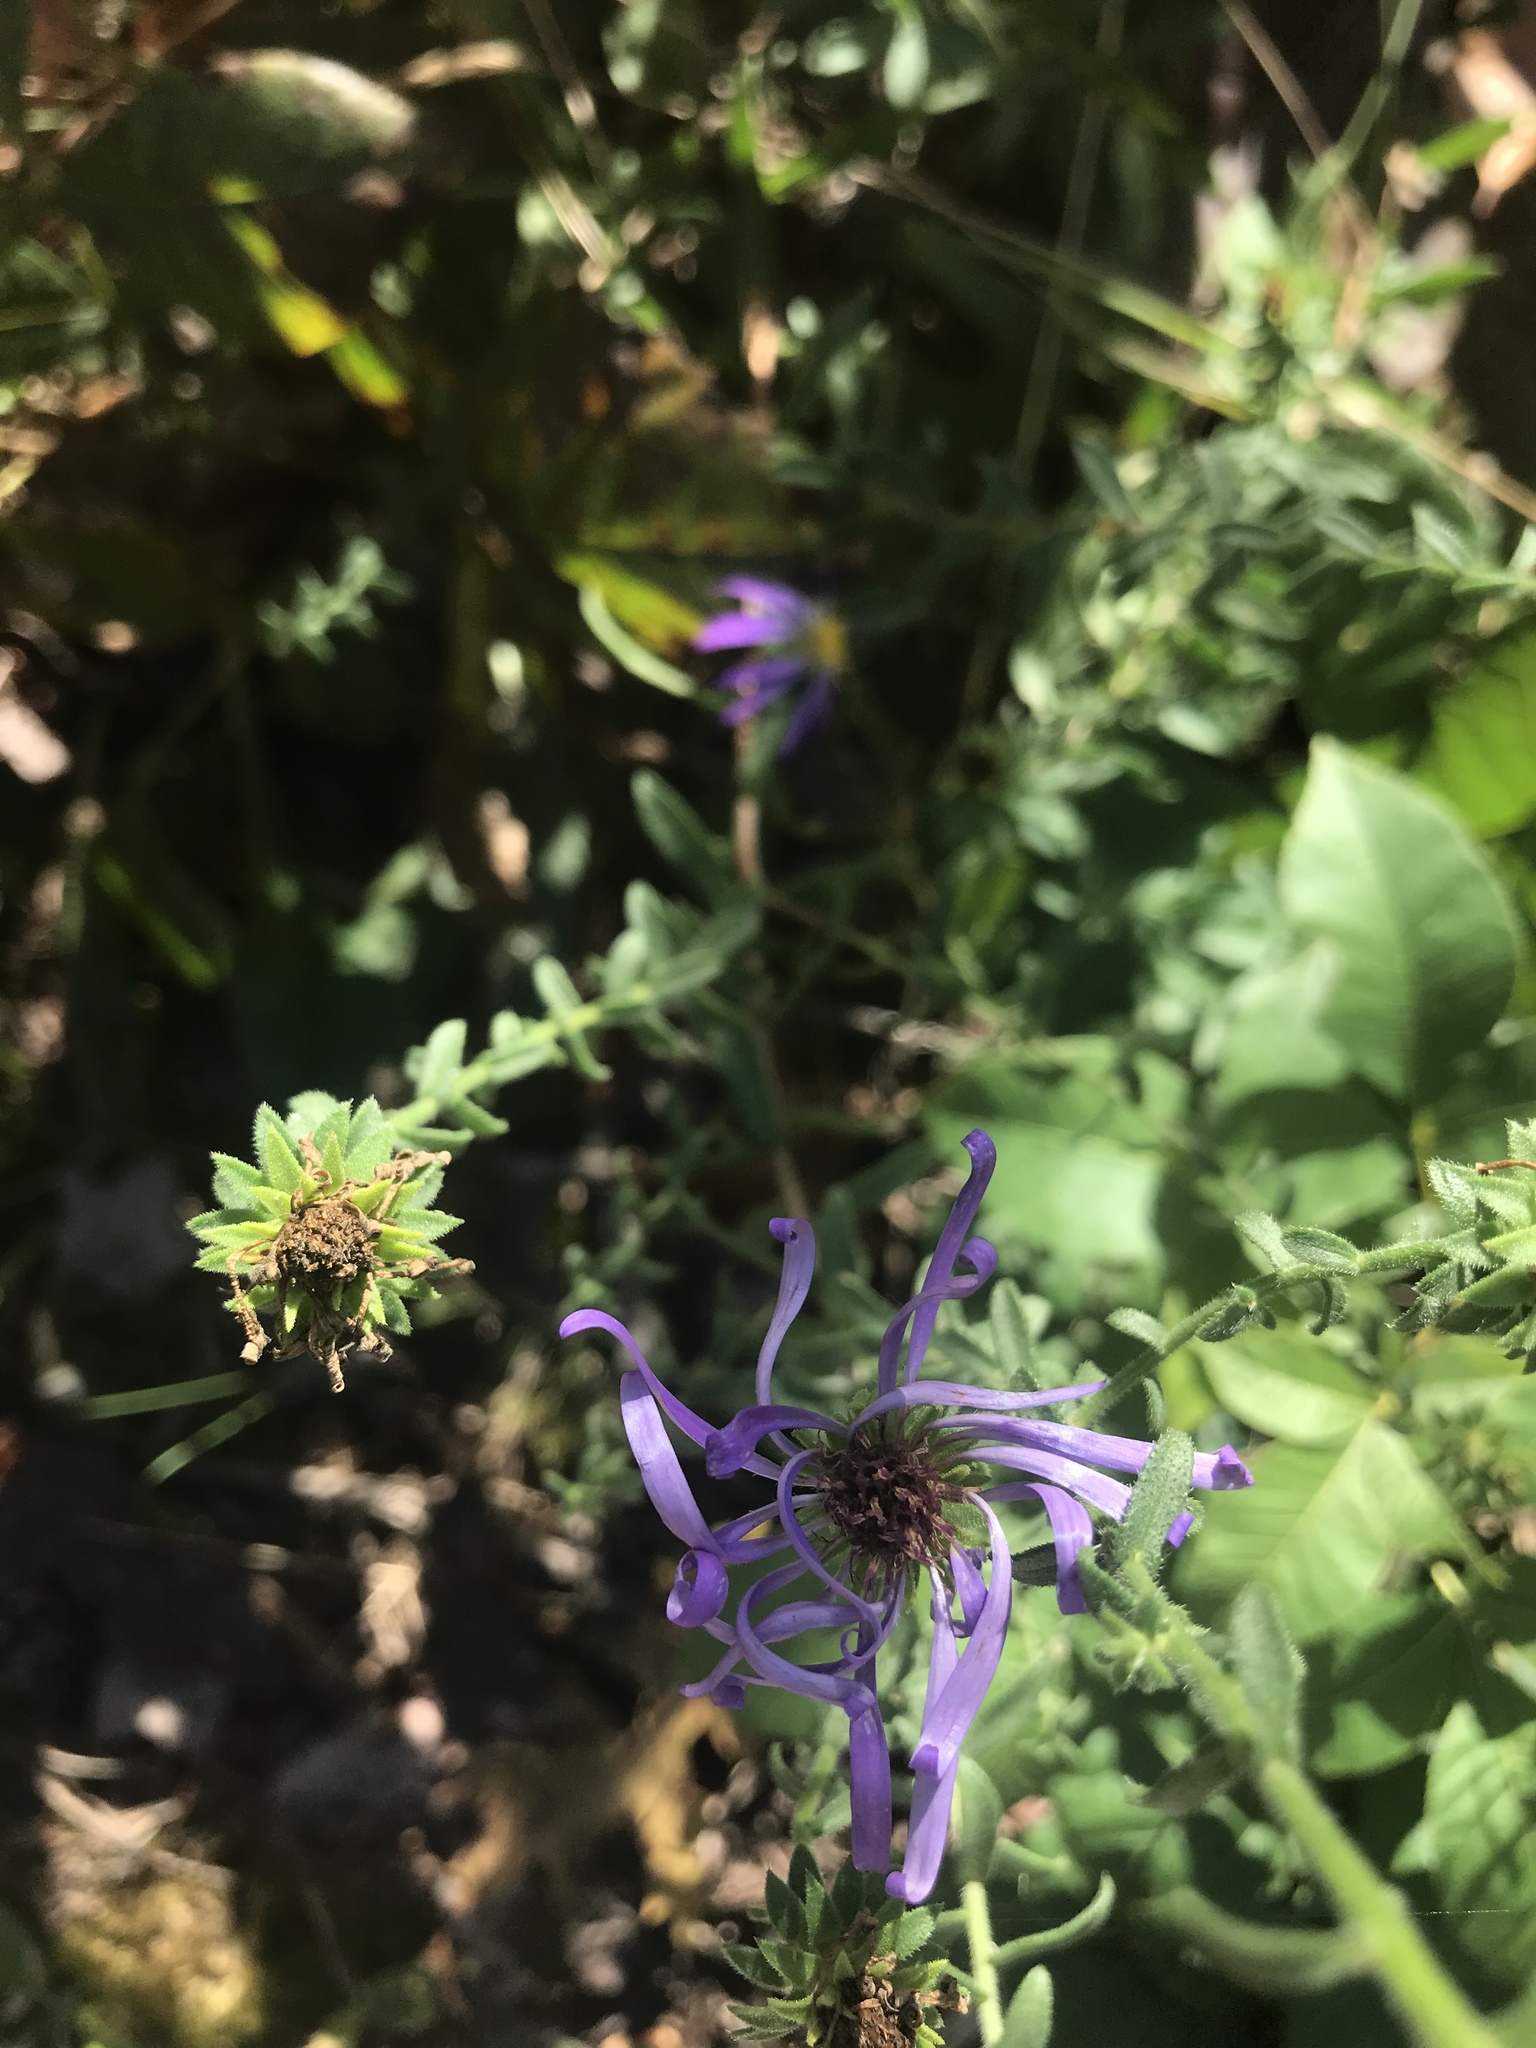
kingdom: Plantae
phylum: Tracheophyta
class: Magnoliopsida
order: Asterales
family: Asteraceae
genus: Symphyotrichum
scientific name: Symphyotrichum grandiflorum
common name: Big-head aster
